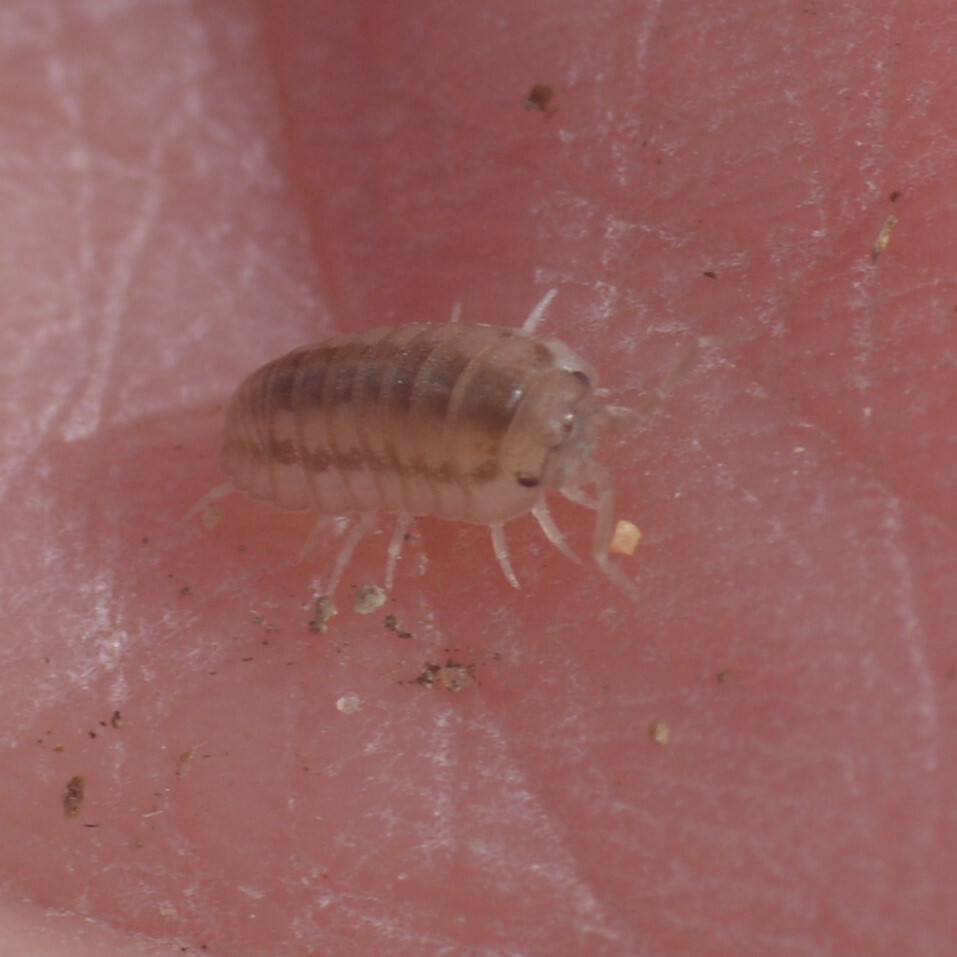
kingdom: Animalia
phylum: Arthropoda
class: Malacostraca
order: Isopoda
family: Armadillidiidae
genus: Armadillidium
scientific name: Armadillidium nasatum
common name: Isopod
